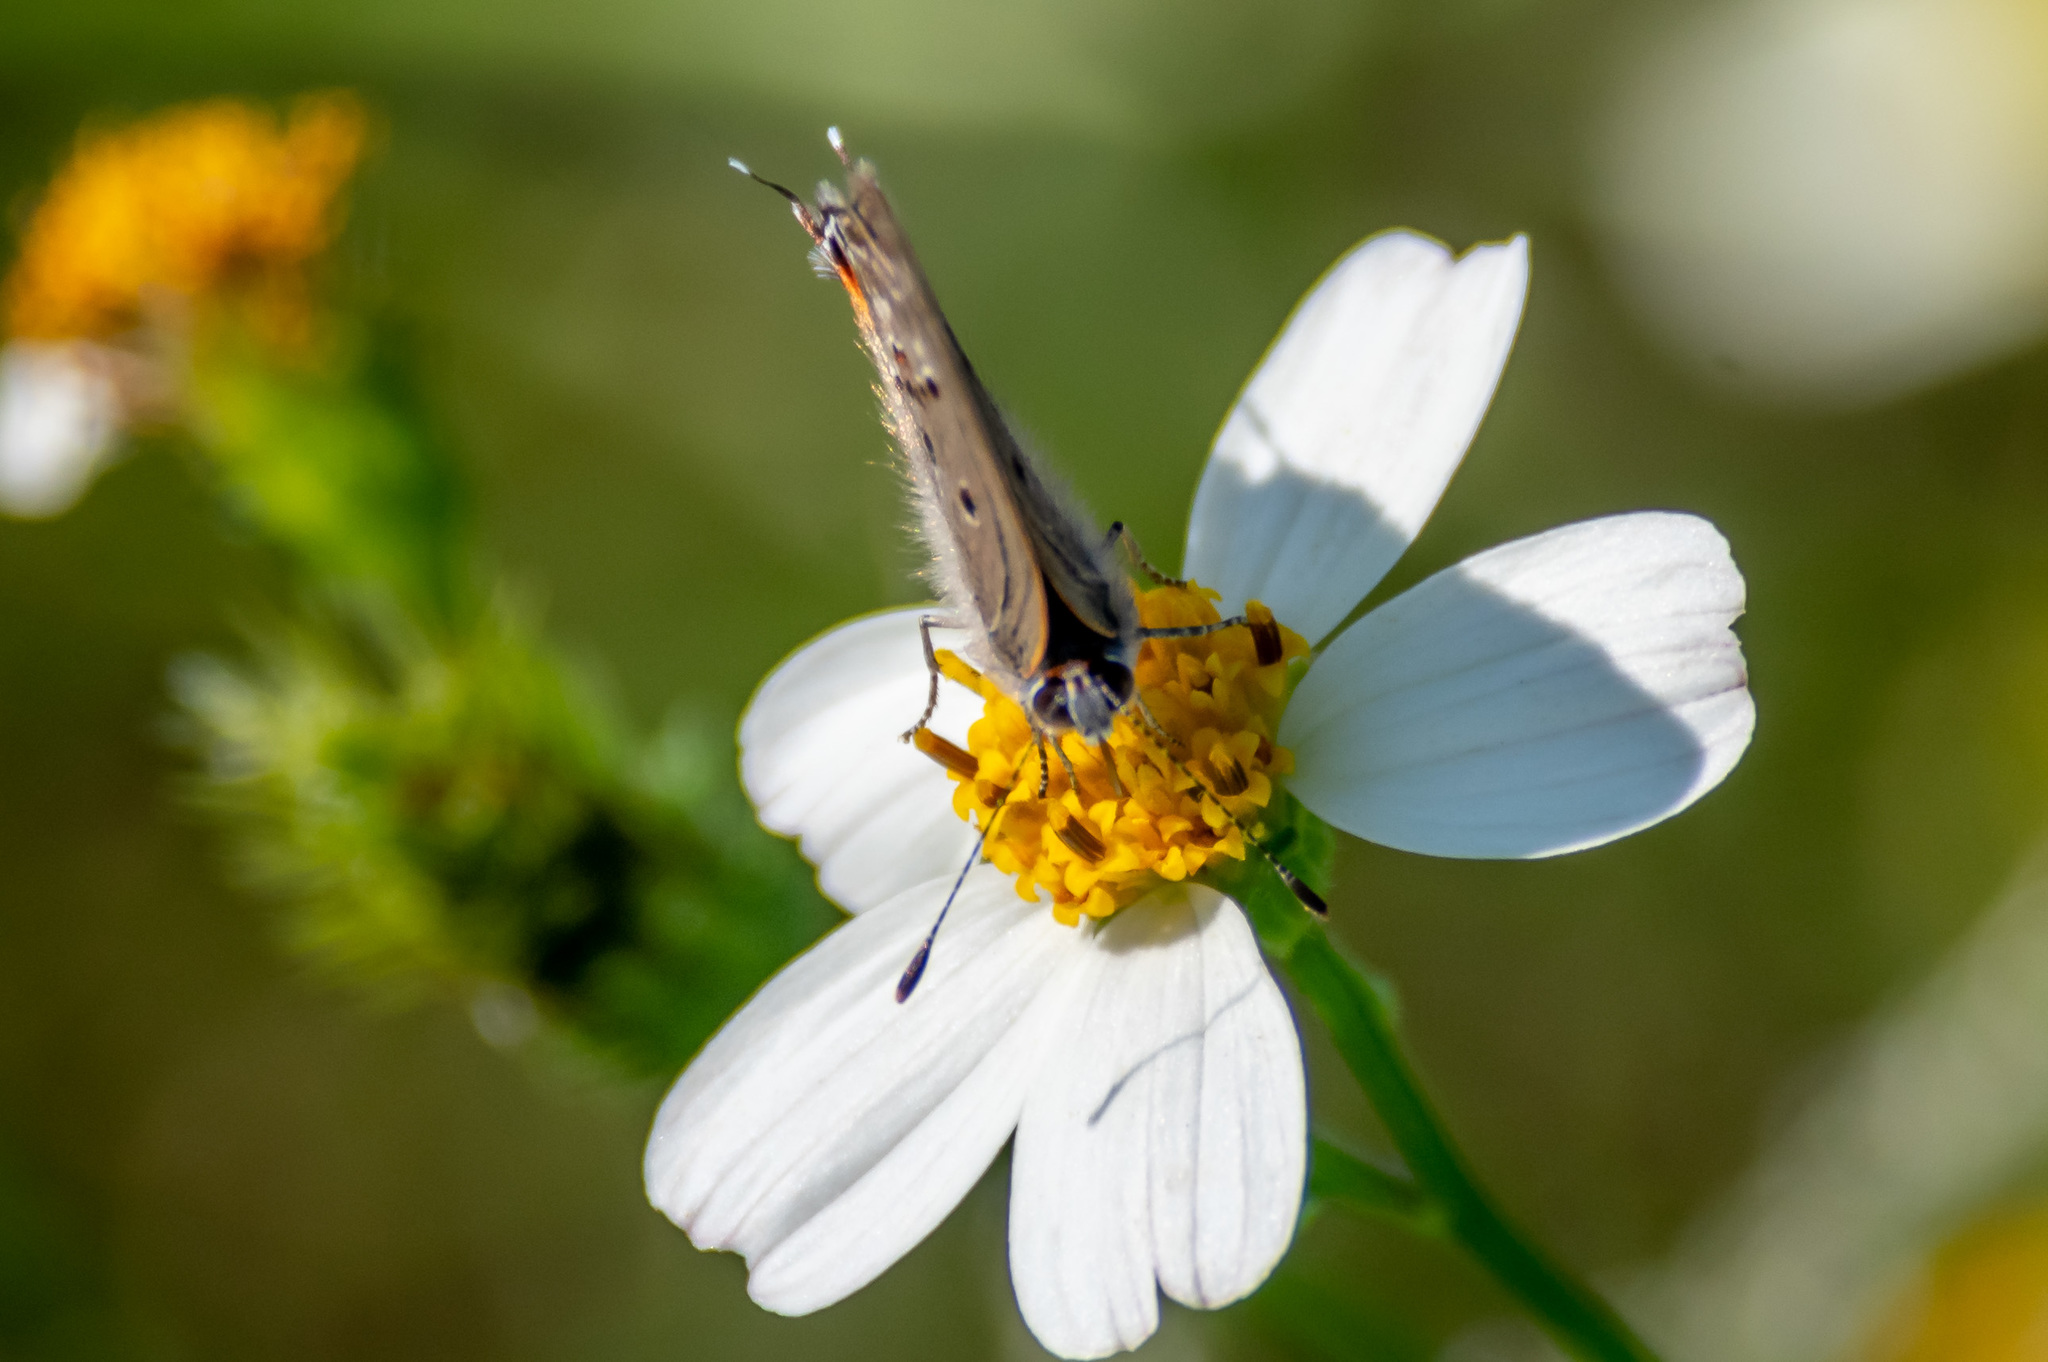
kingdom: Animalia
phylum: Arthropoda
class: Insecta
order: Lepidoptera
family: Lycaenidae
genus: Callicista
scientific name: Callicista columella
